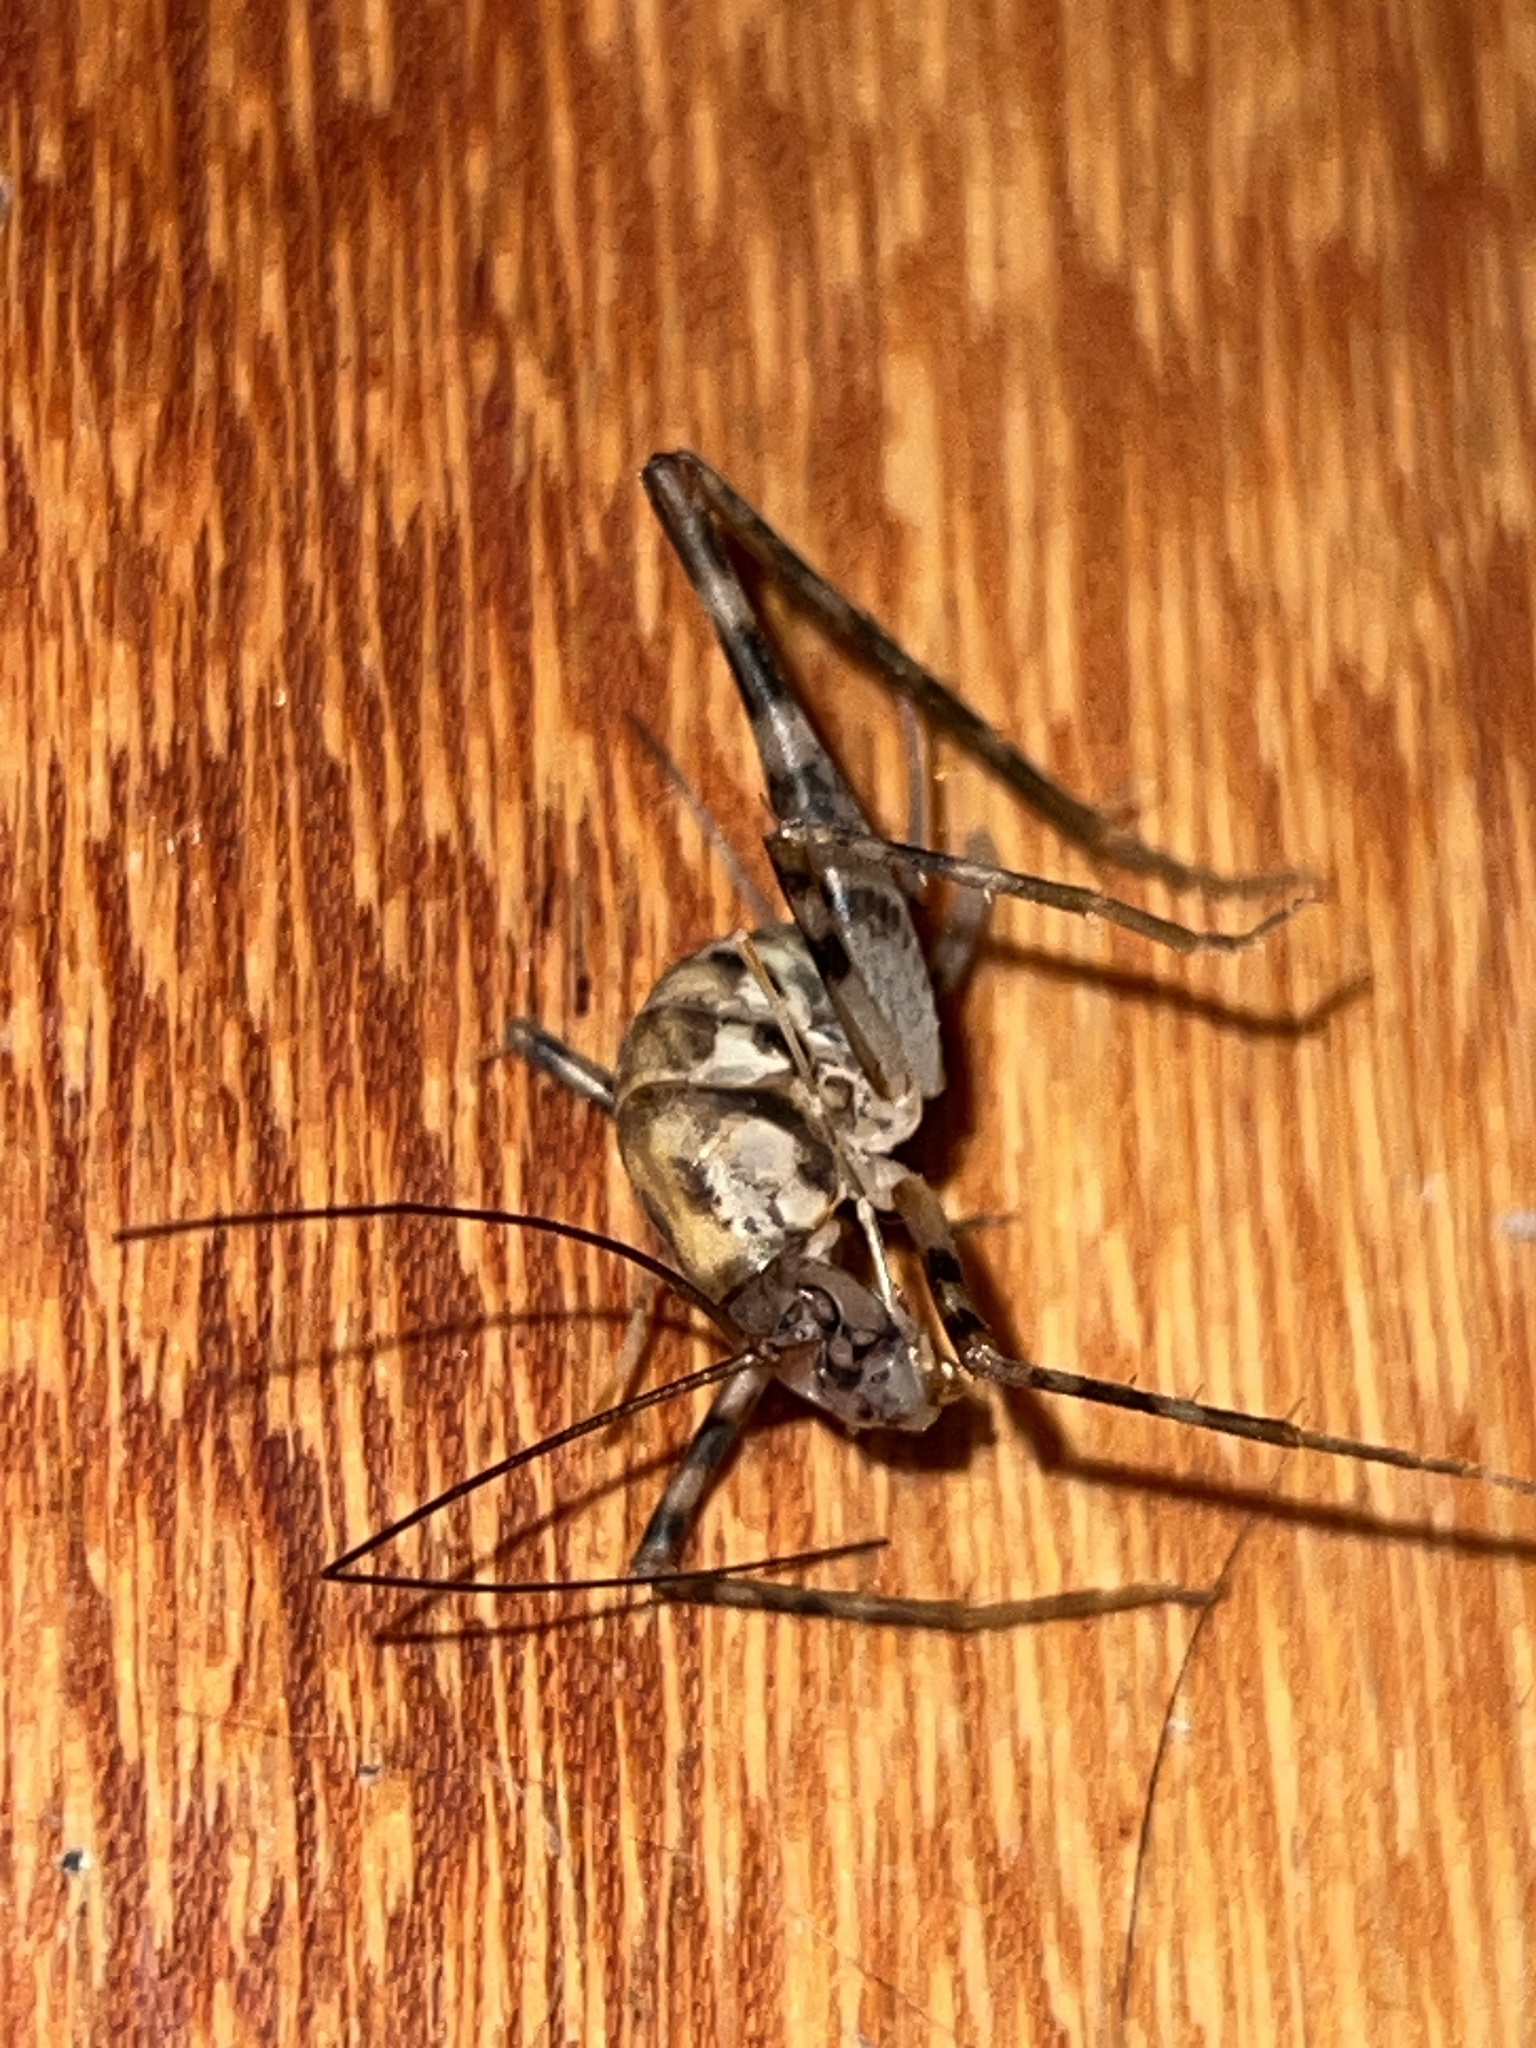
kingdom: Animalia
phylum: Arthropoda
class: Insecta
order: Orthoptera
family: Rhaphidophoridae
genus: Tachycines
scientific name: Tachycines asynamorus
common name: Greenhouse camel cricket
